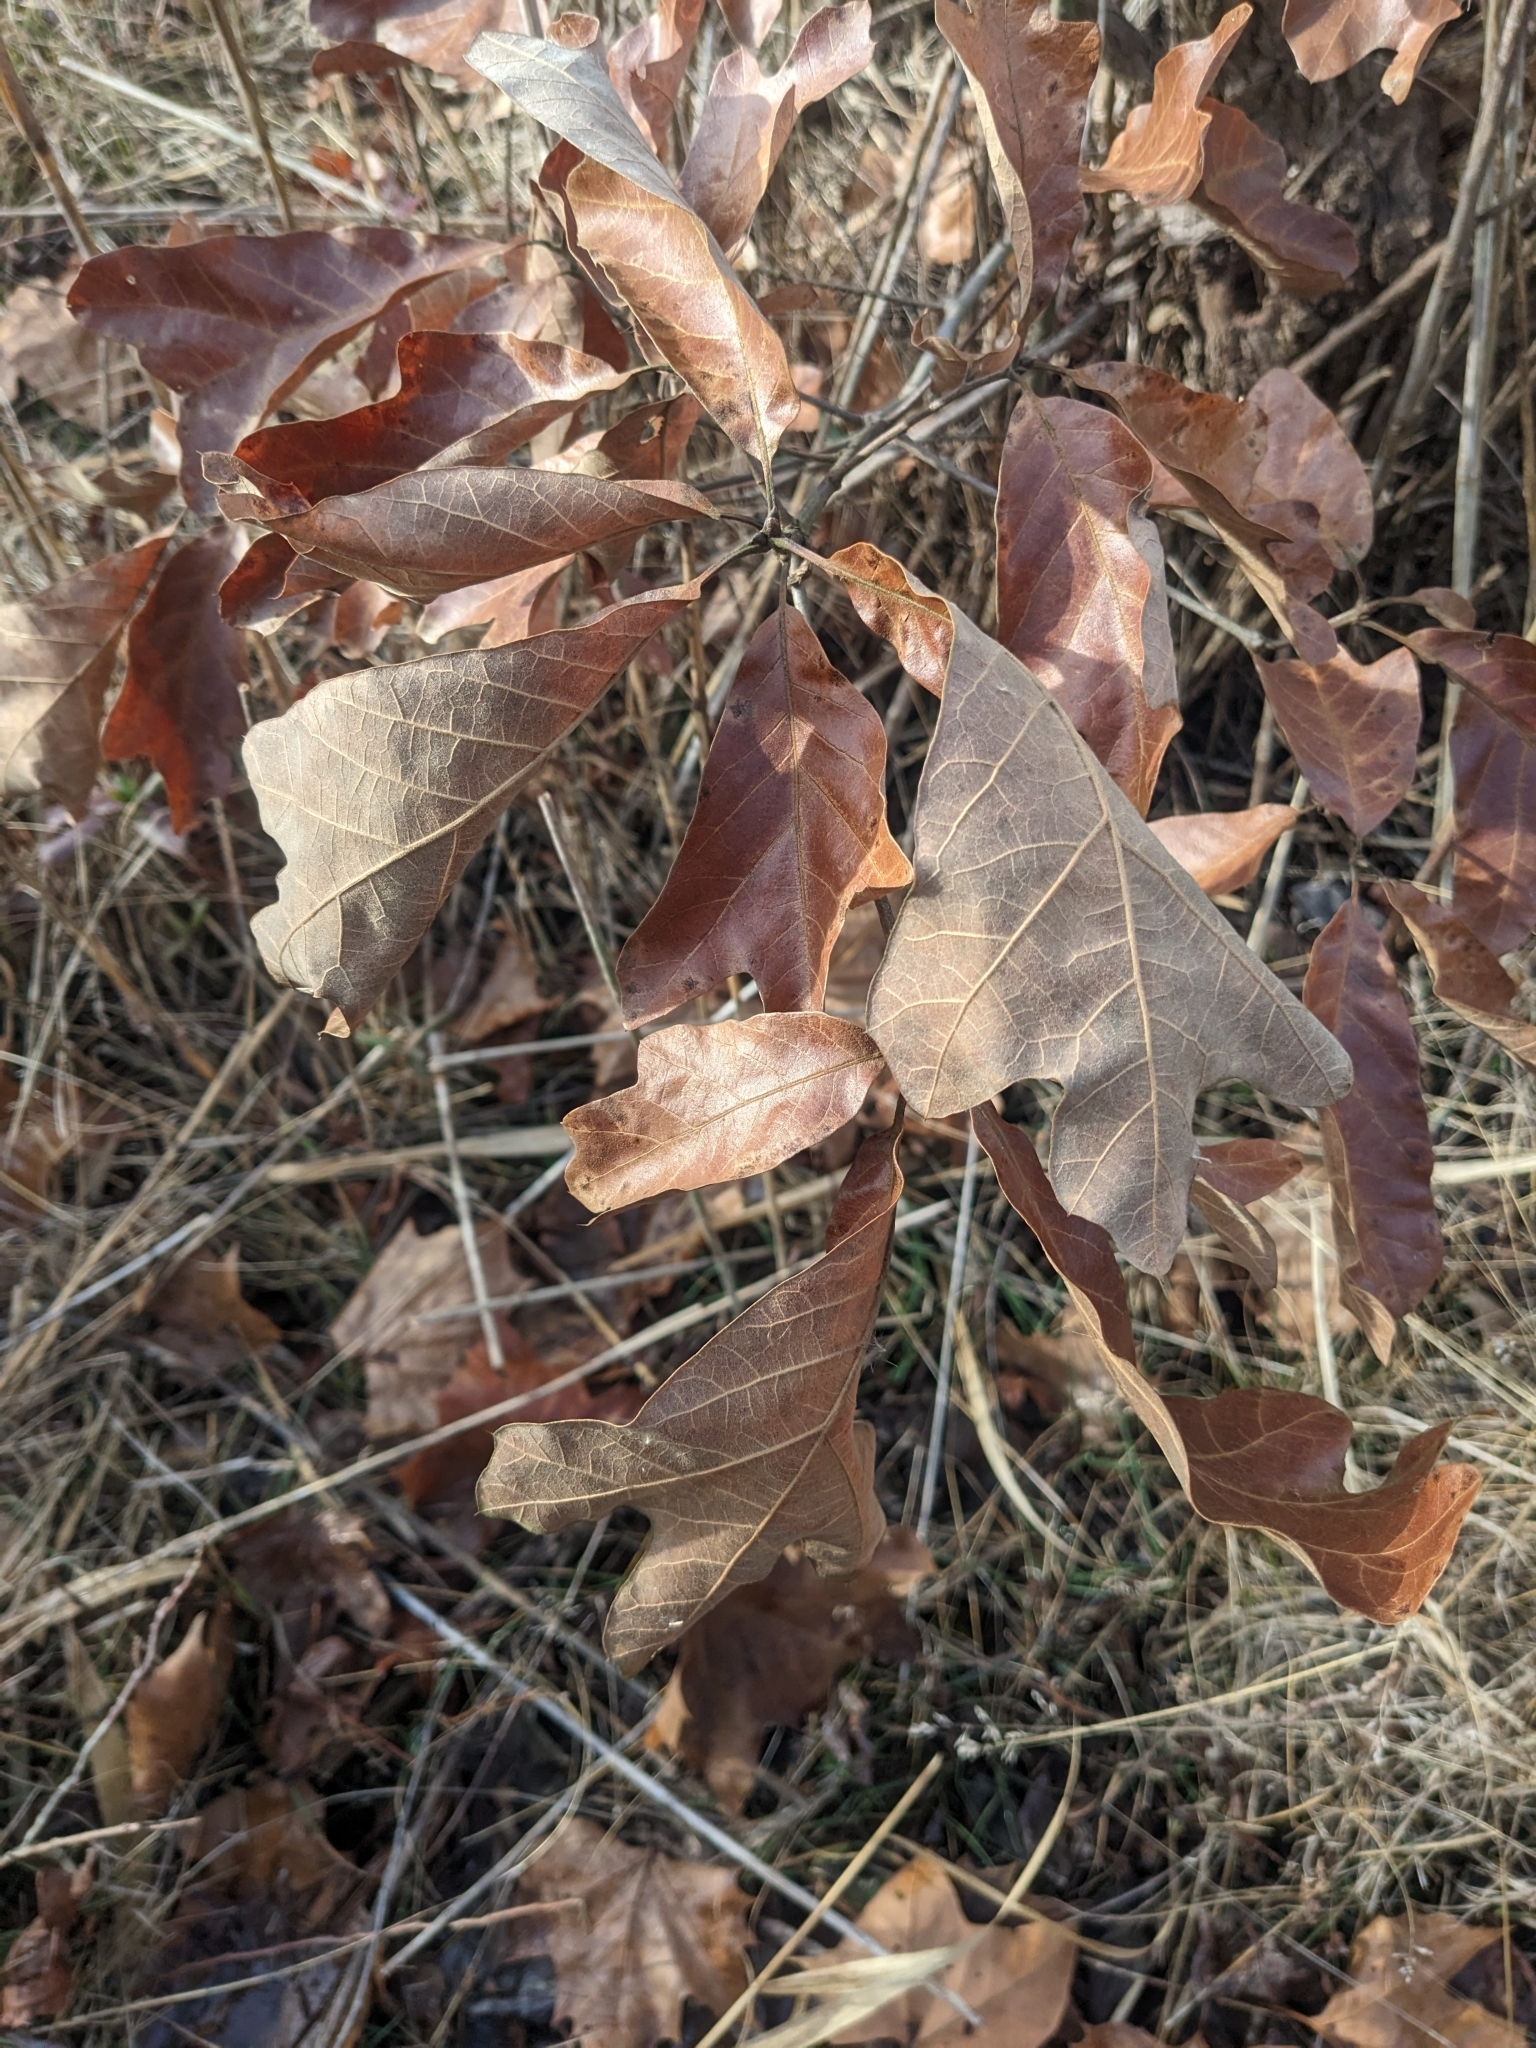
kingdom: Plantae
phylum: Tracheophyta
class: Magnoliopsida
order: Fagales
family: Fagaceae
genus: Quercus
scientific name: Quercus falcata
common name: Southern red oak
